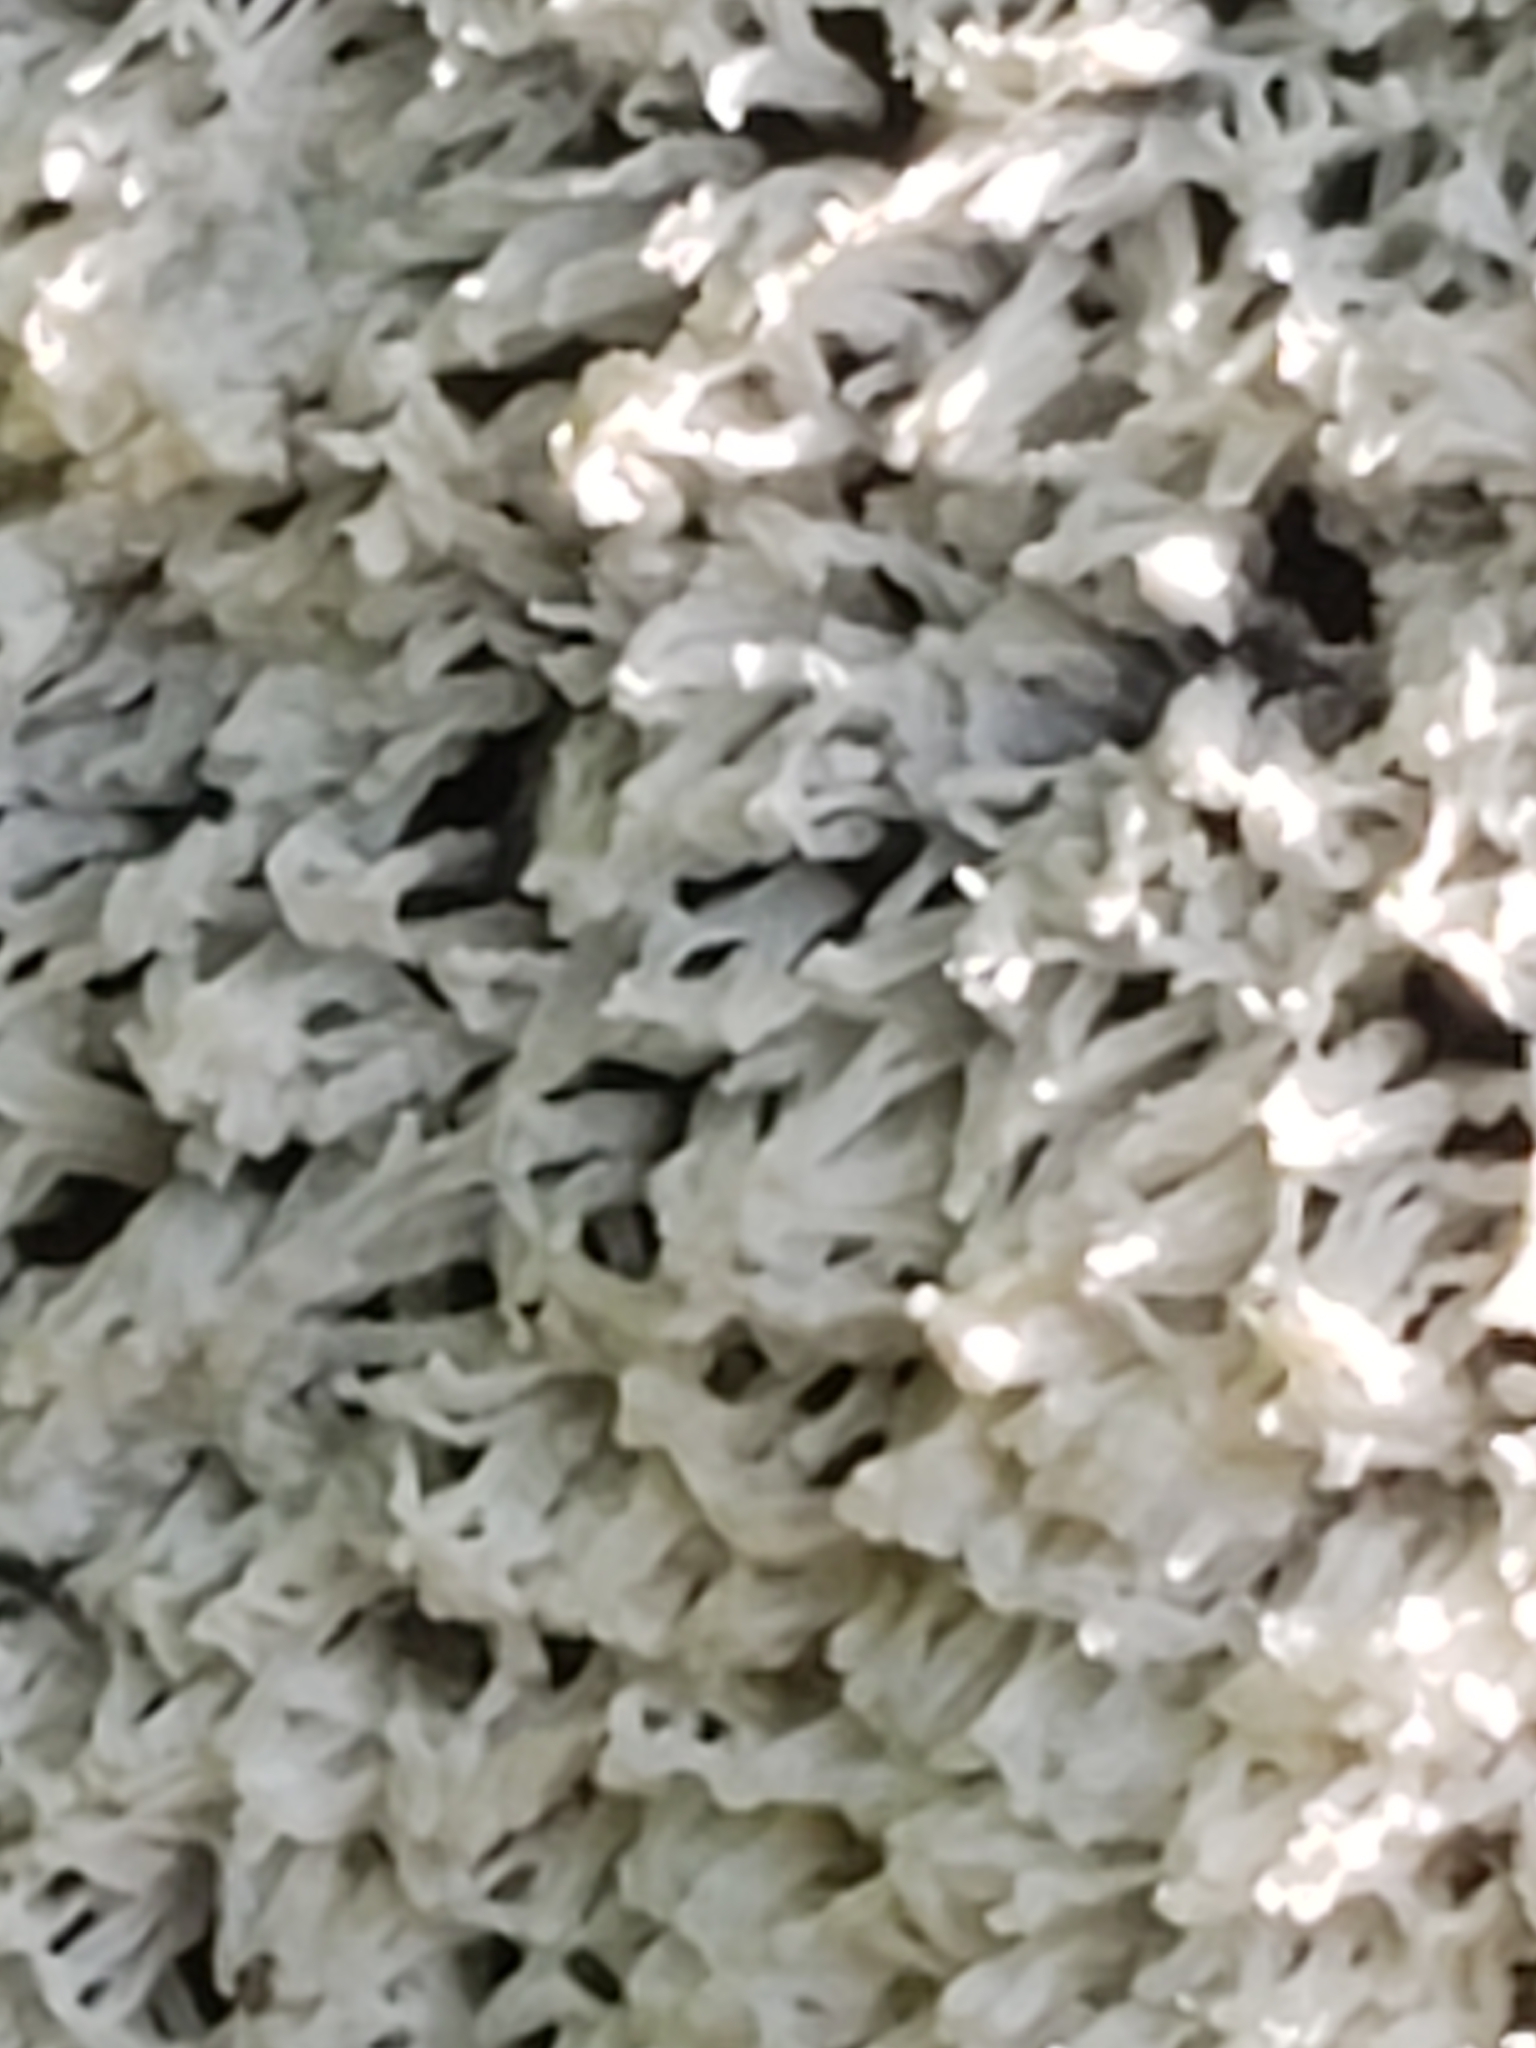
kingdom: Protozoa
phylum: Mycetozoa
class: Protosteliomycetes
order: Ceratiomyxales
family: Ceratiomyxaceae
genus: Ceratiomyxa
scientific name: Ceratiomyxa fruticulosa
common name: Honeycomb coral slime mold
